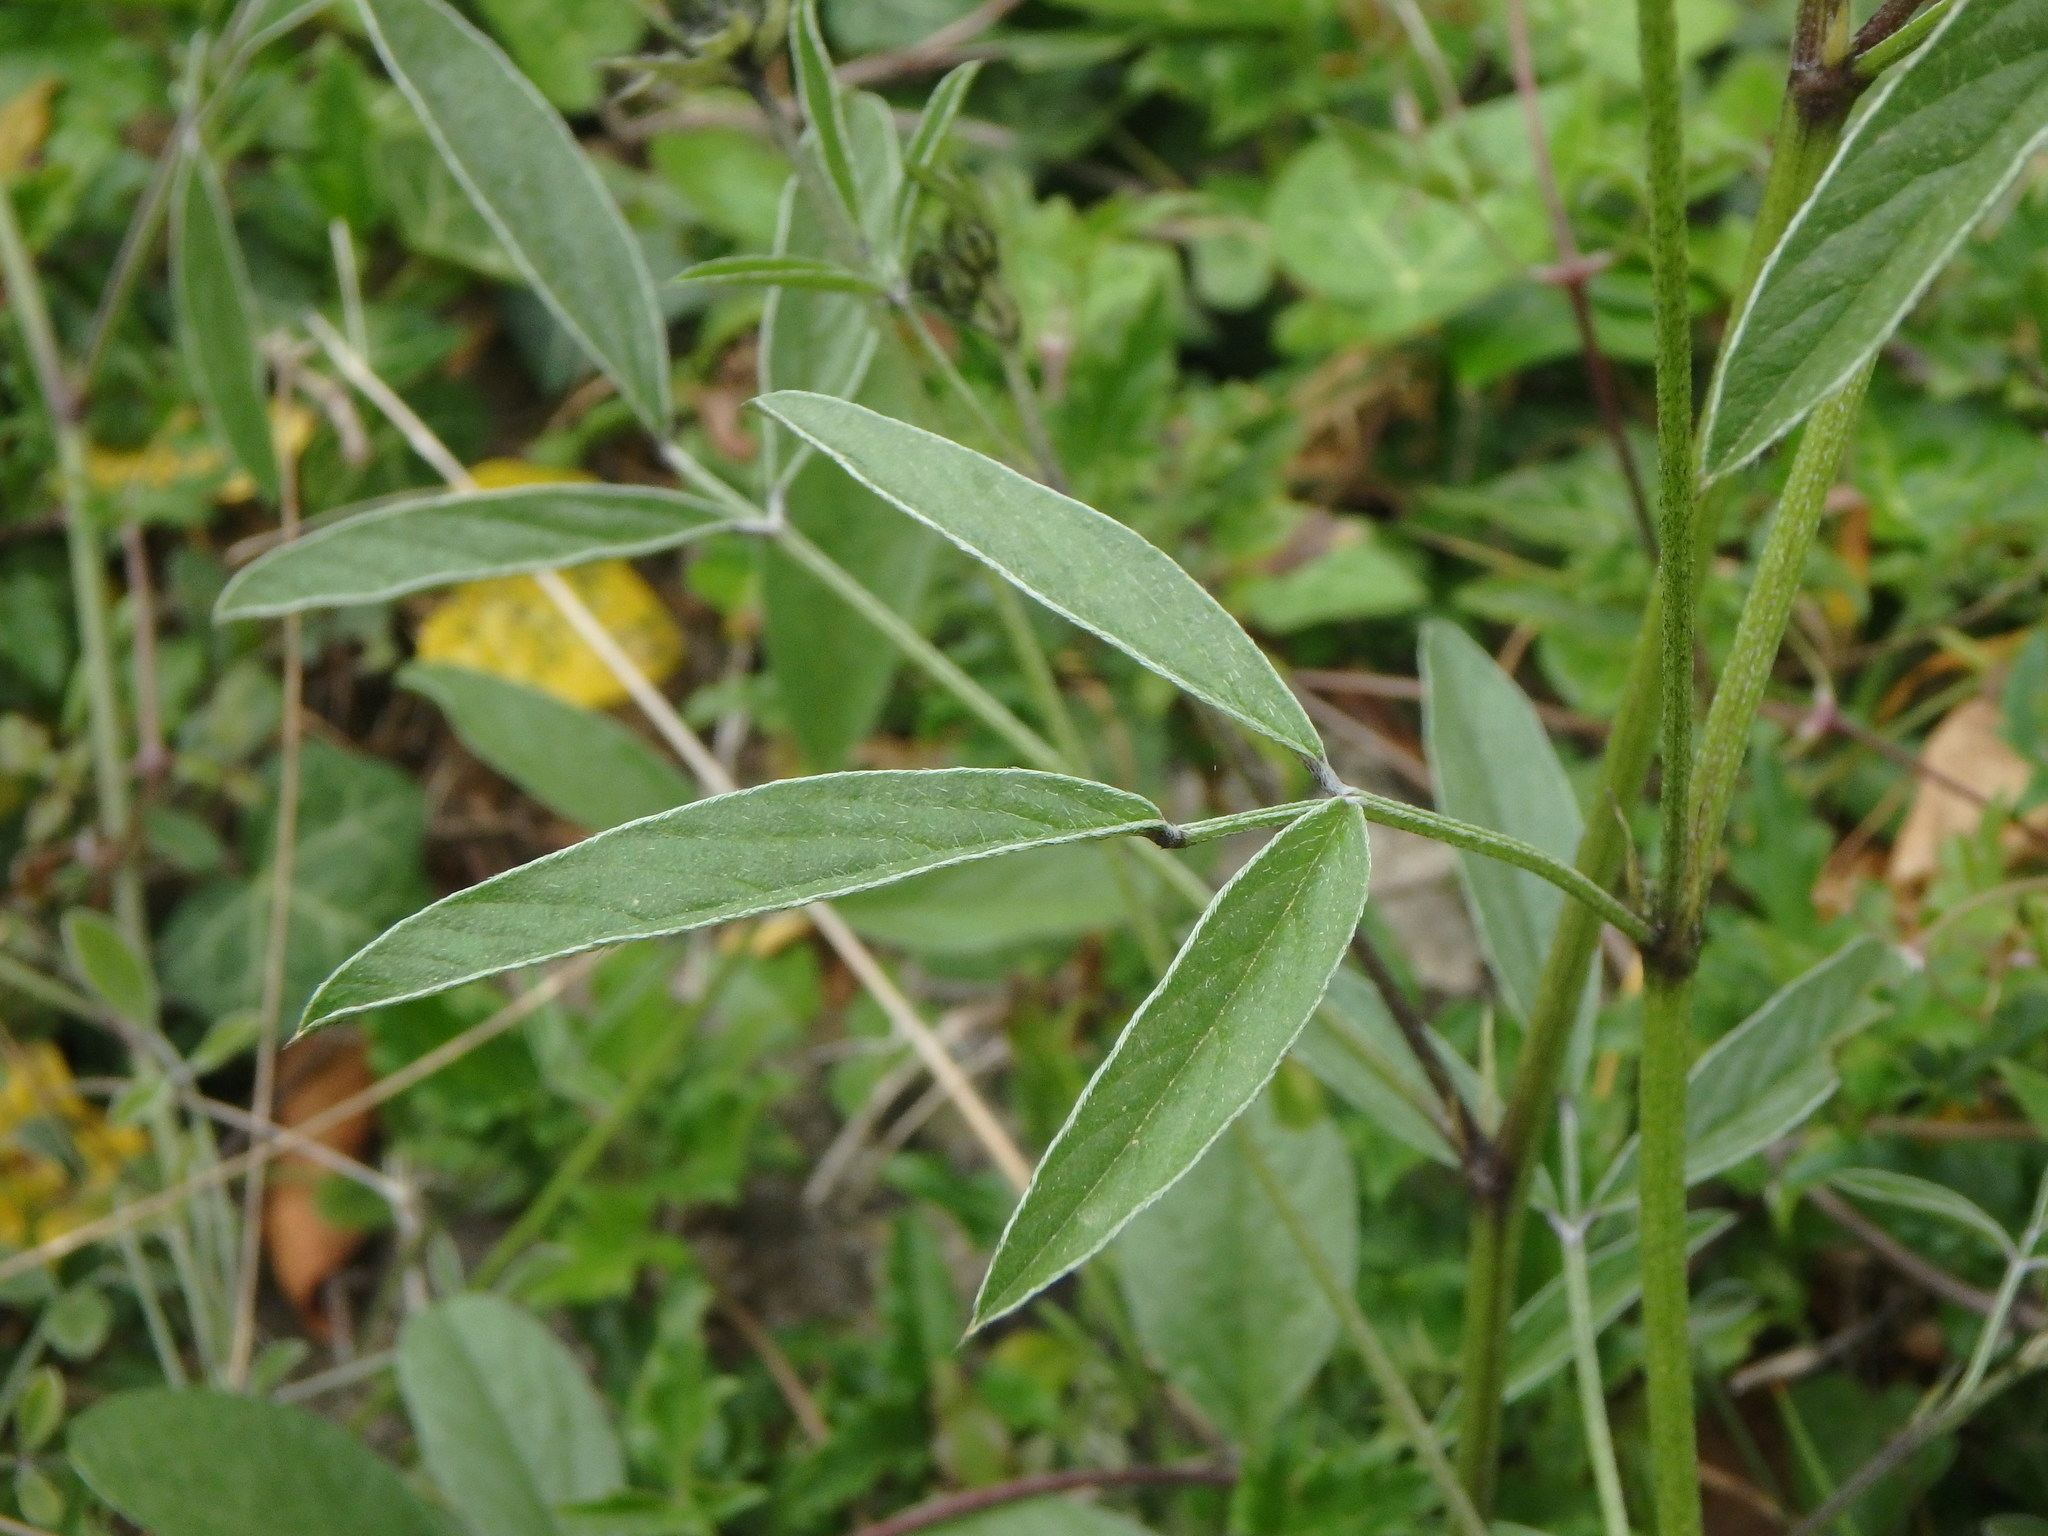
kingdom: Plantae
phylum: Tracheophyta
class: Magnoliopsida
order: Fabales
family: Fabaceae
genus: Bituminaria
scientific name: Bituminaria bituminosa
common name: Arabian pea
